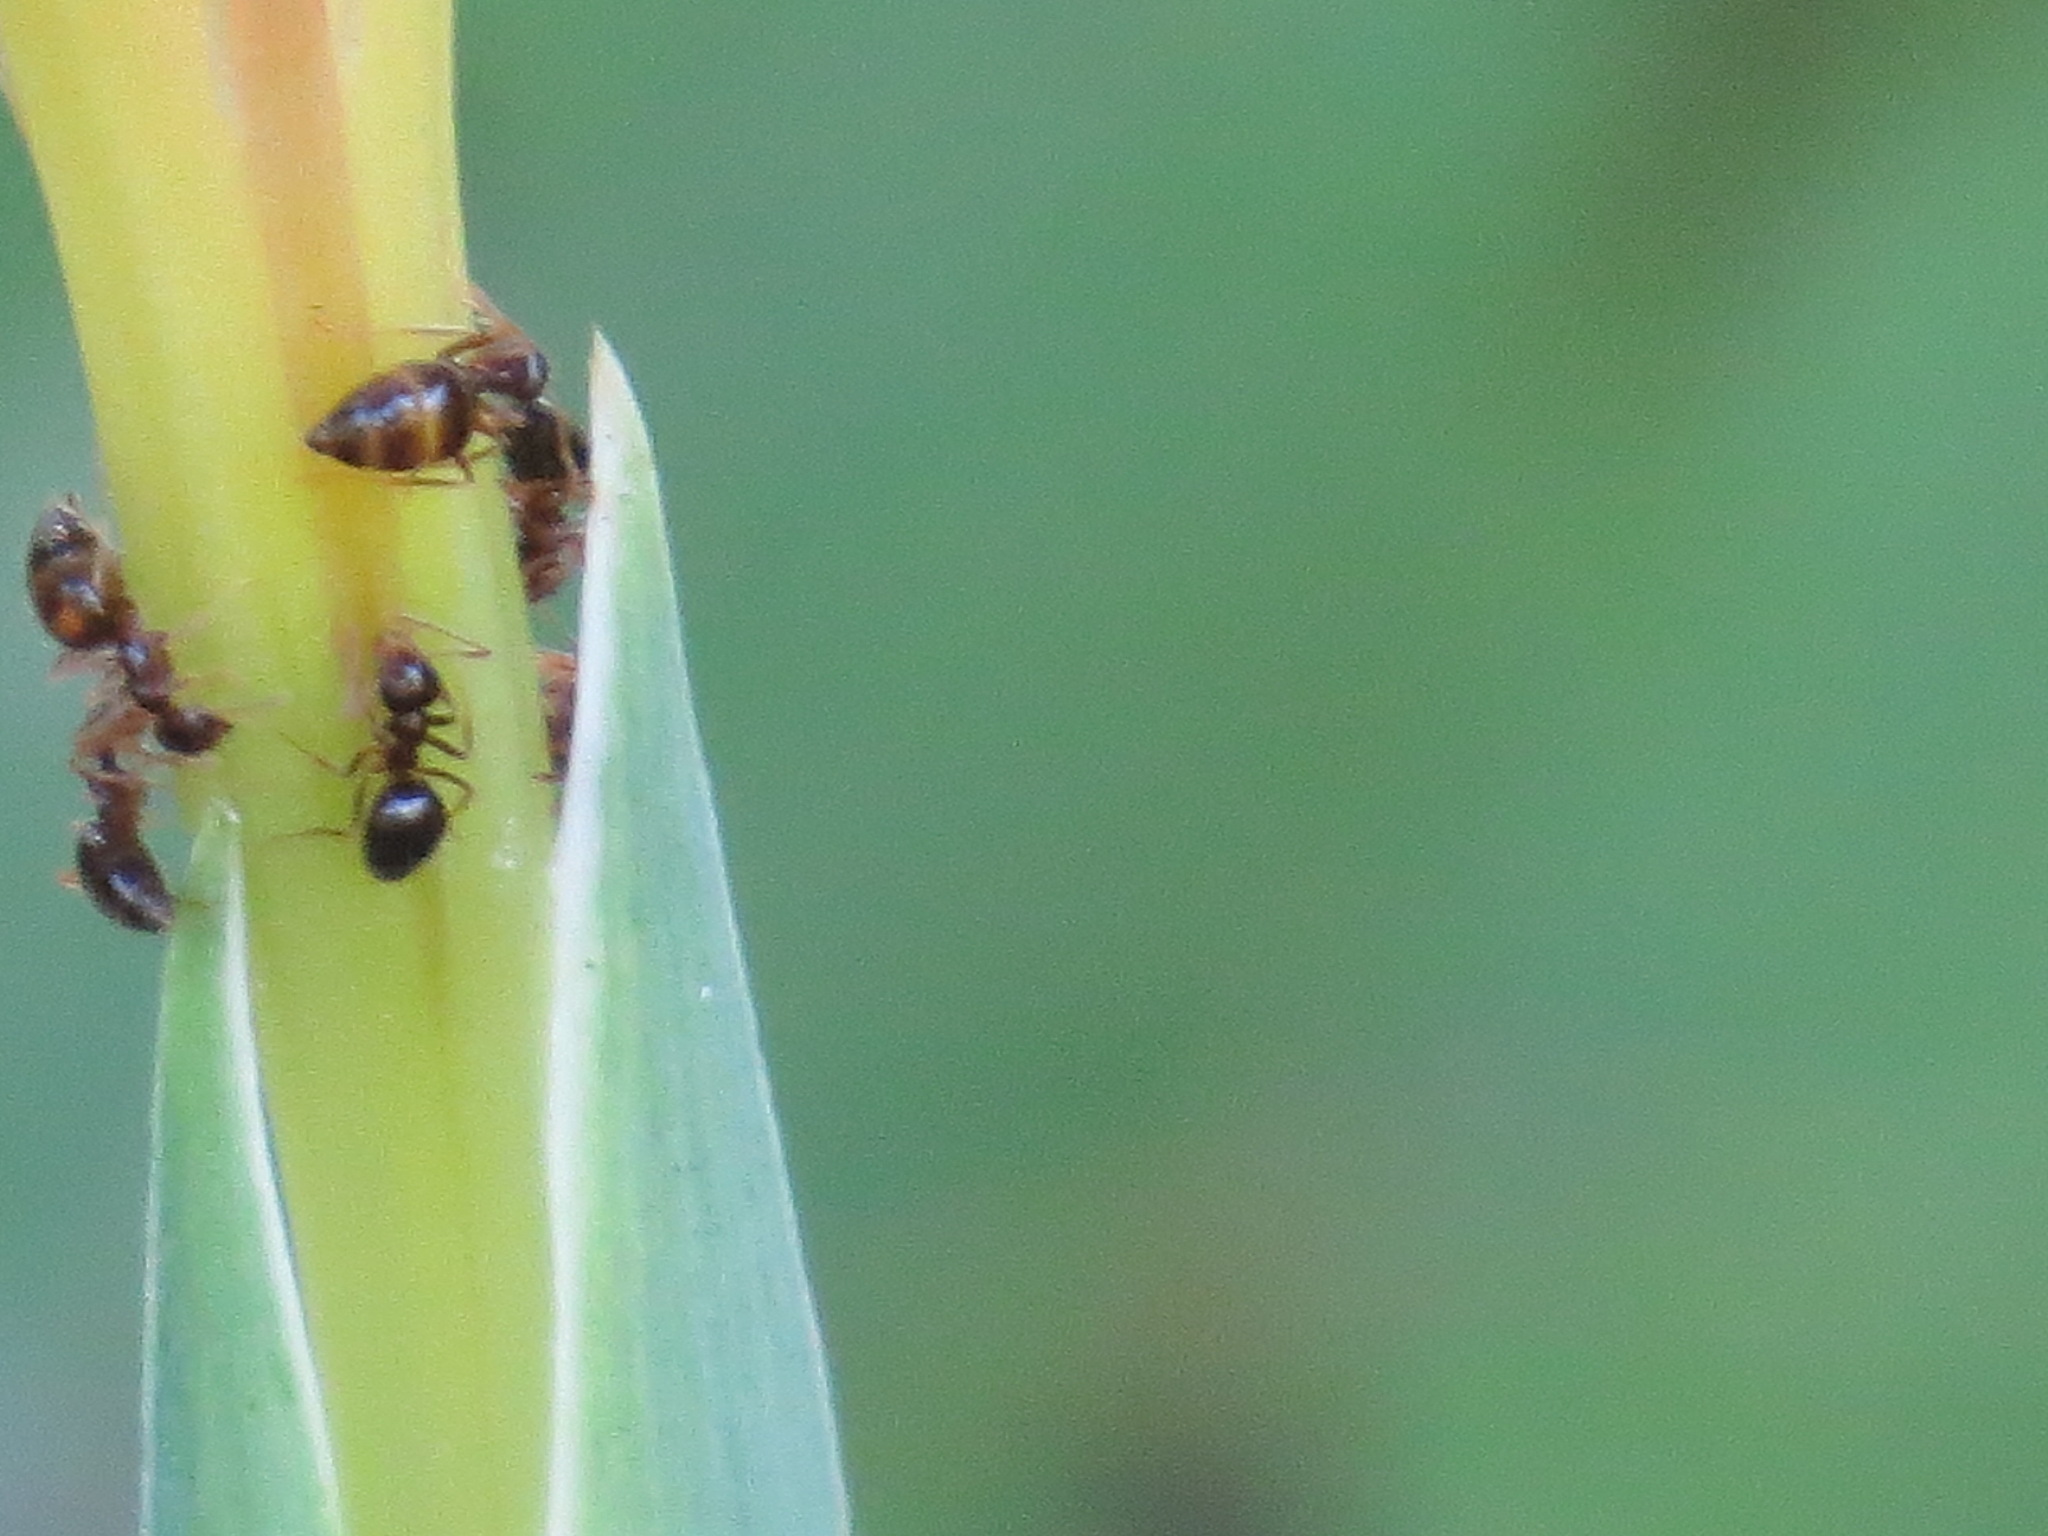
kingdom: Animalia
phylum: Arthropoda
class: Insecta
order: Hymenoptera
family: Formicidae
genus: Prenolepis
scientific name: Prenolepis imparis
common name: Small honey ant
